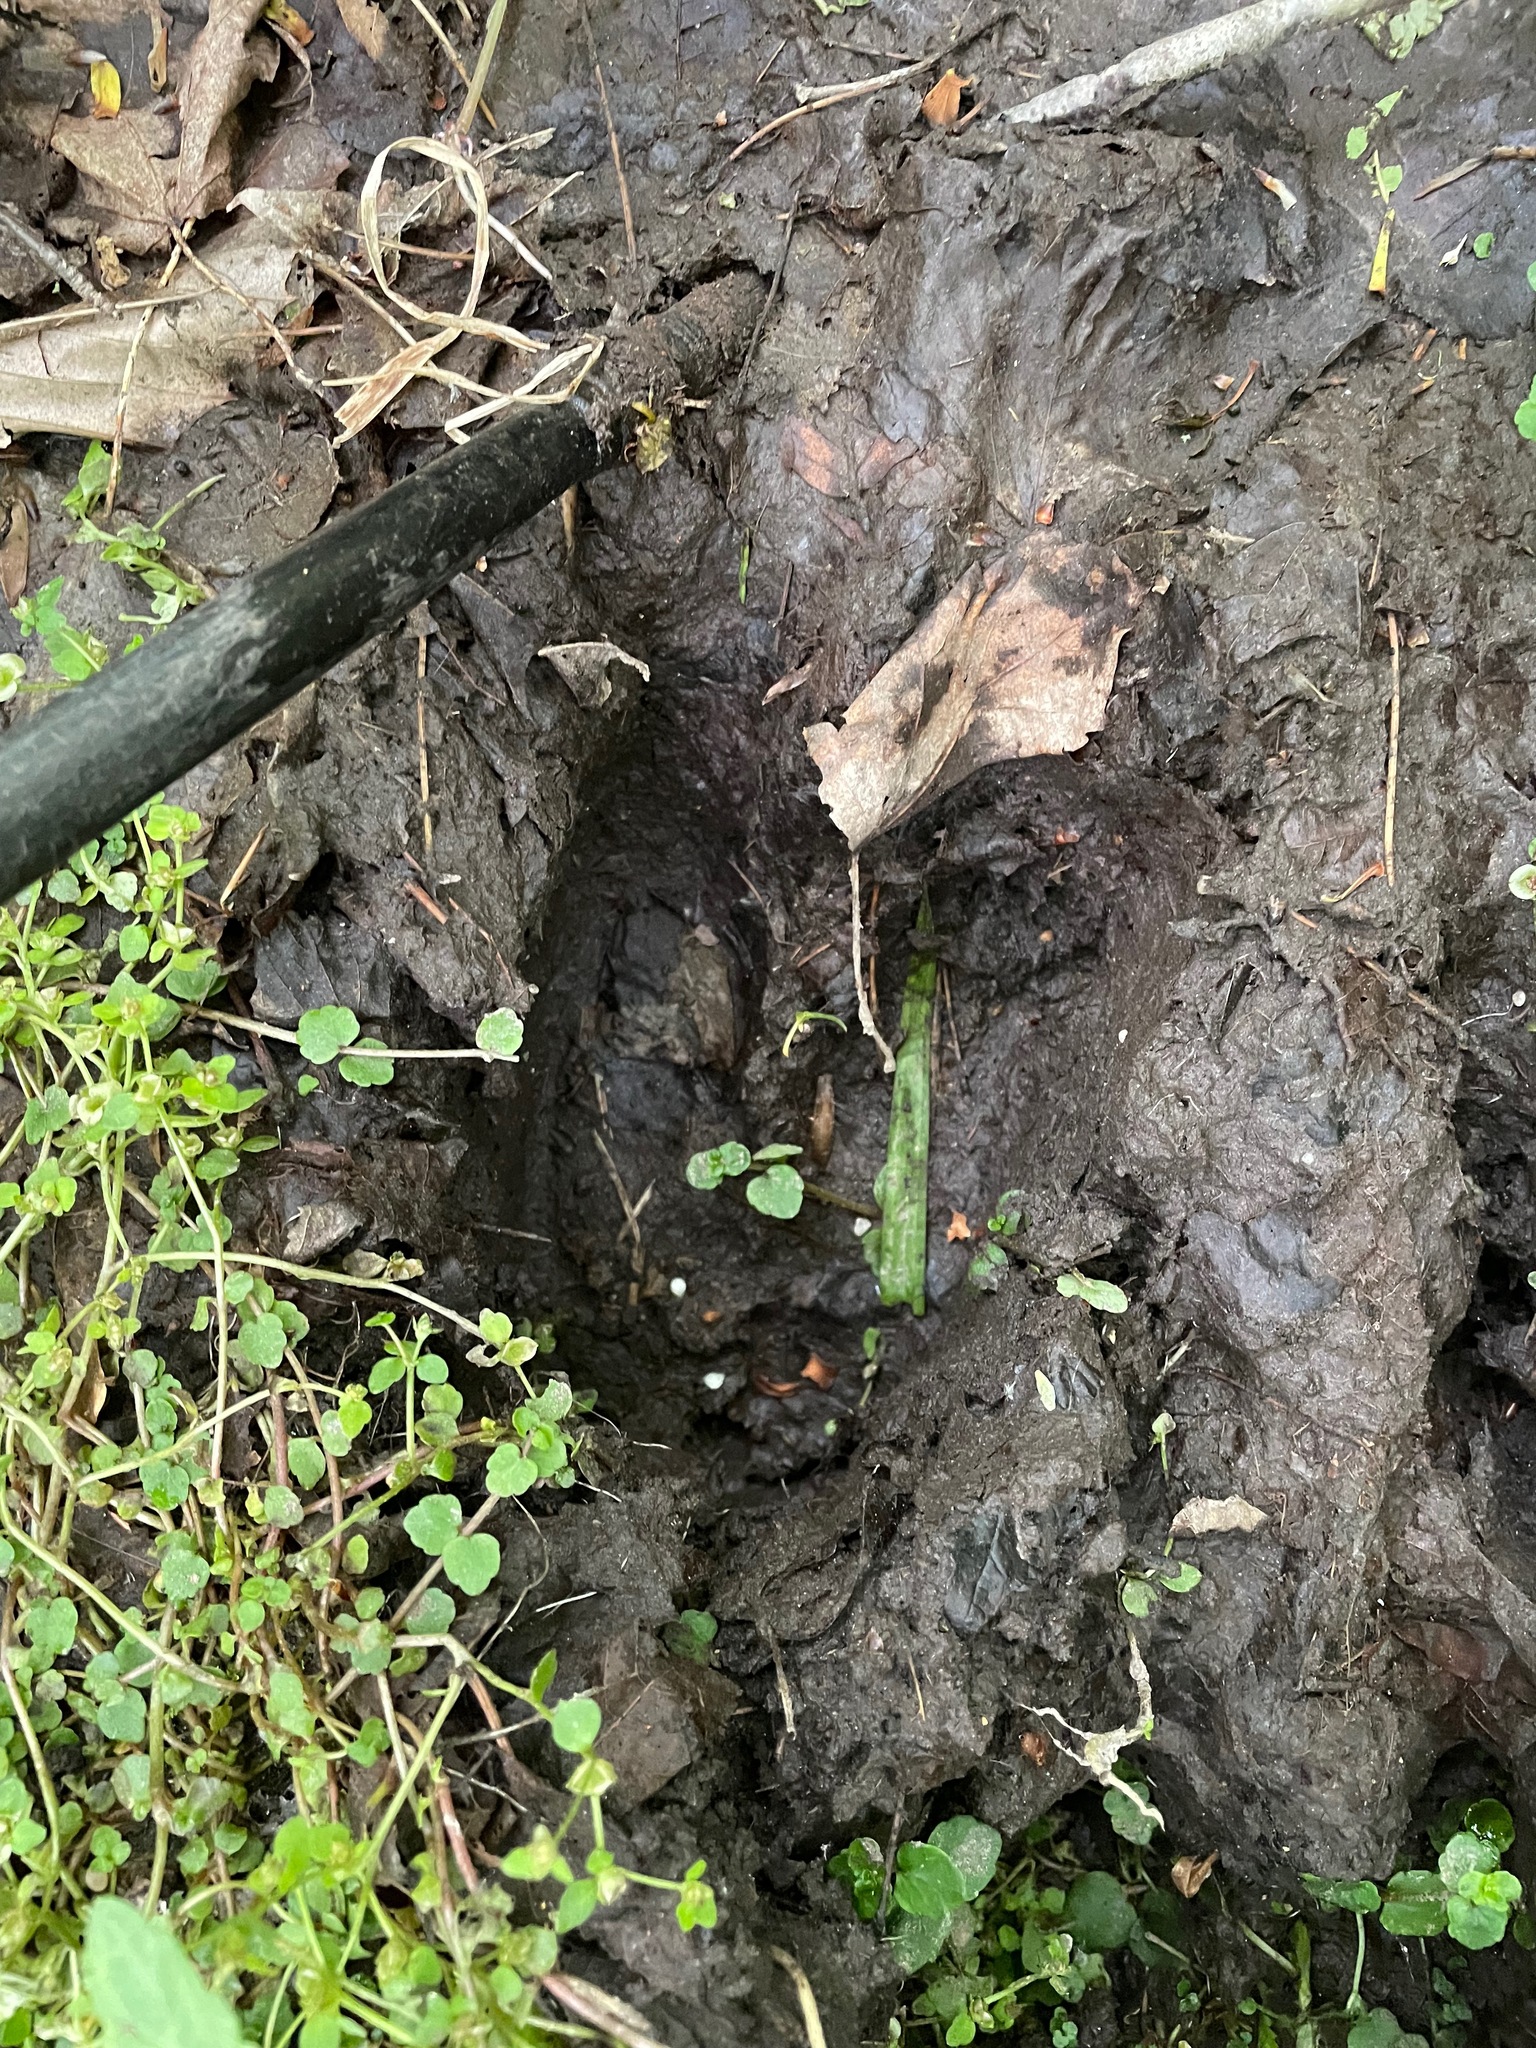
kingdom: Animalia
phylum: Chordata
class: Mammalia
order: Artiodactyla
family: Cervidae
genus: Odocoileus
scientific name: Odocoileus virginianus
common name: White-tailed deer
